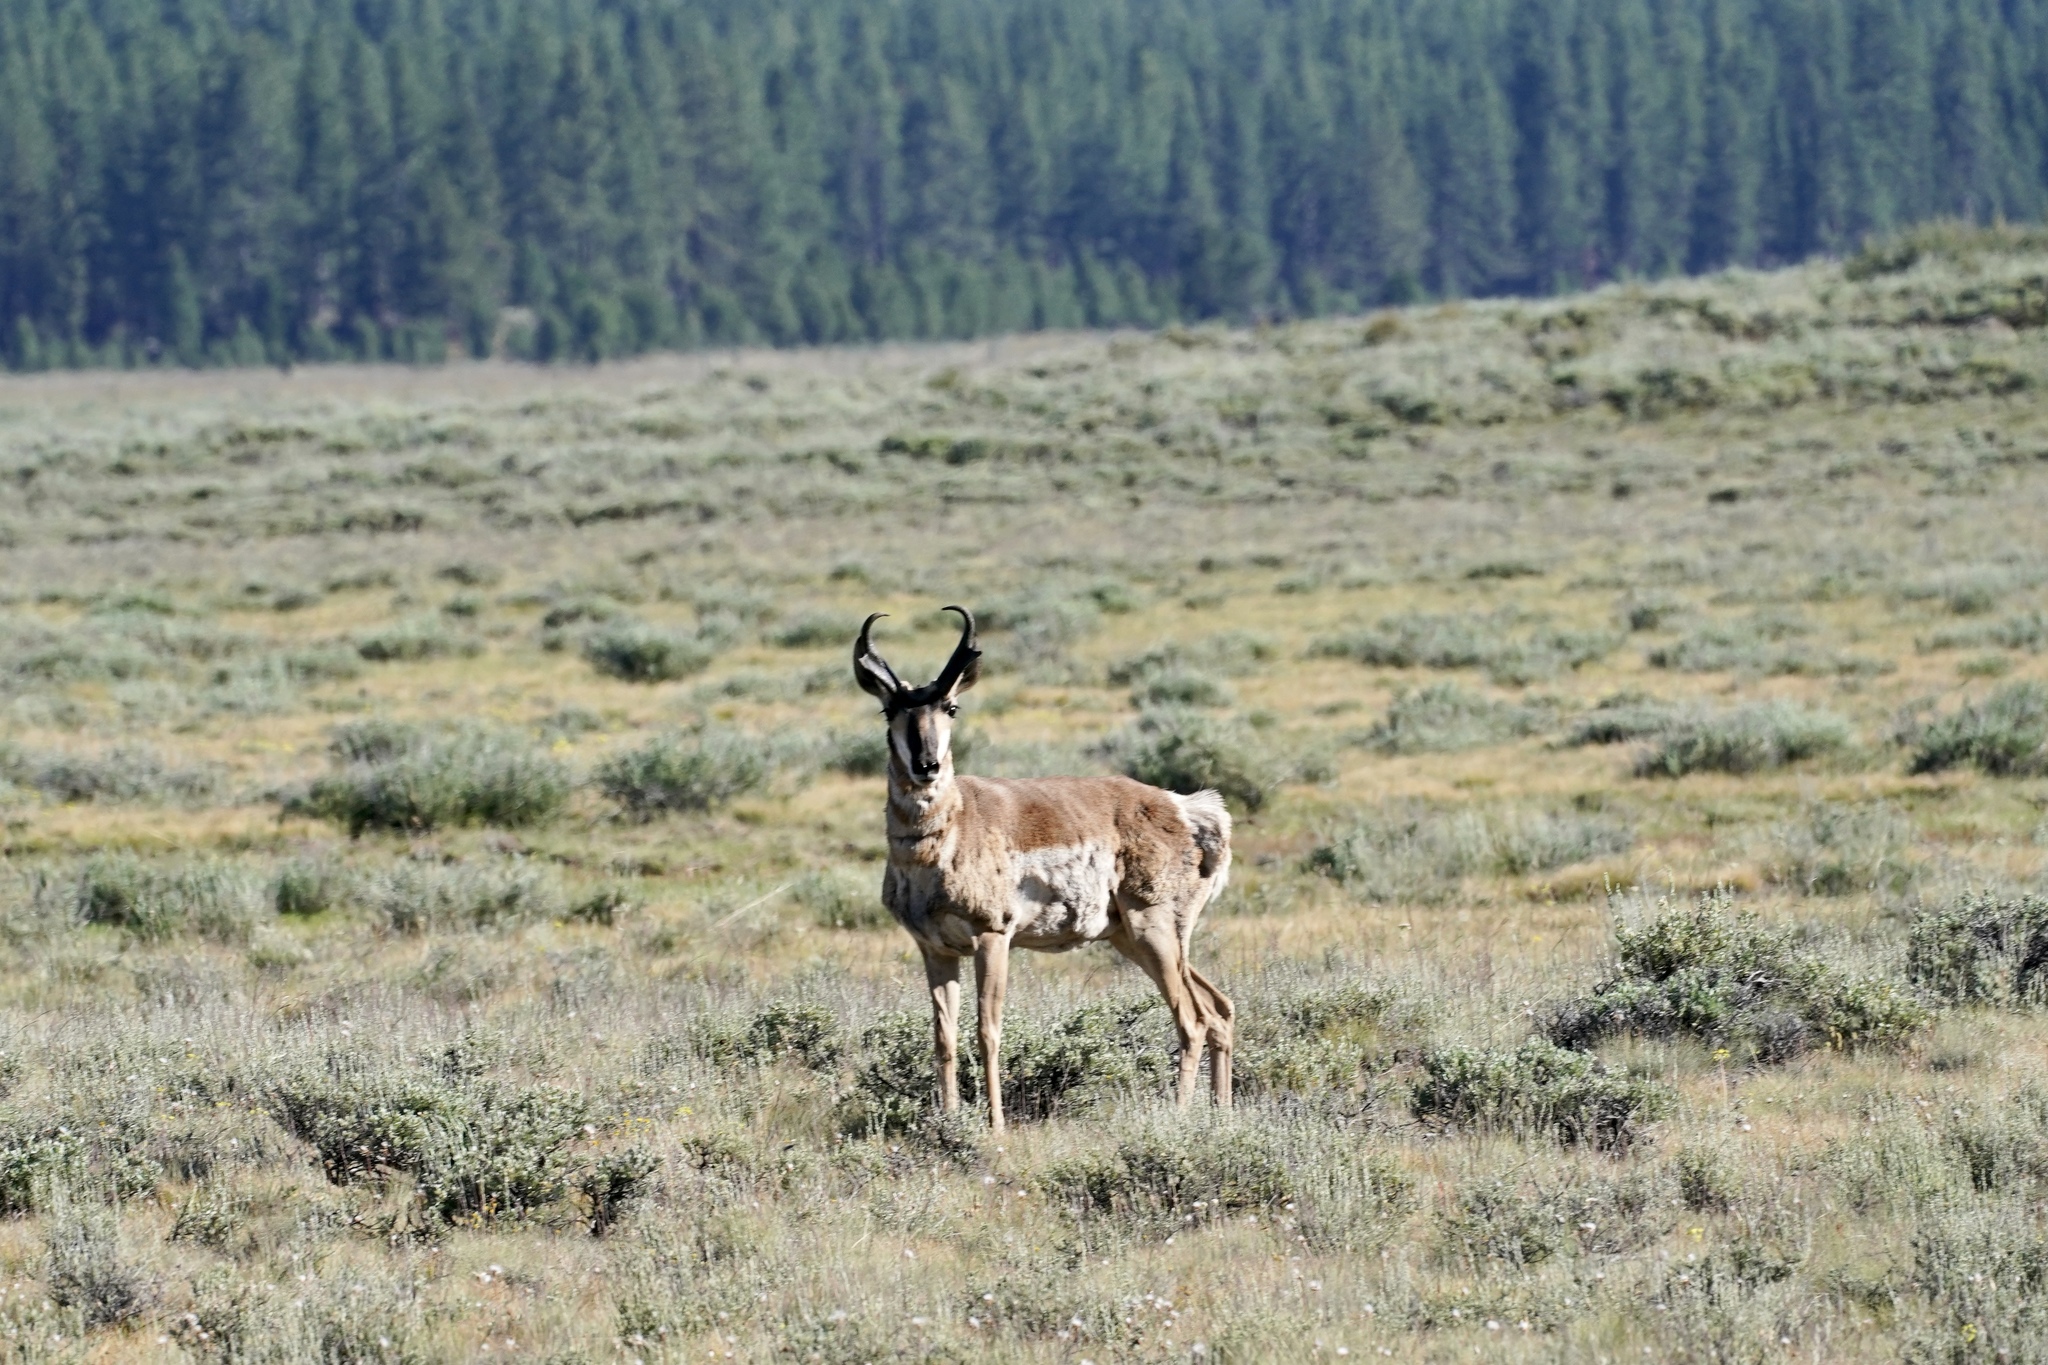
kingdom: Animalia
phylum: Chordata
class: Mammalia
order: Artiodactyla
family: Antilocapridae
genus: Antilocapra
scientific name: Antilocapra americana
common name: Pronghorn
